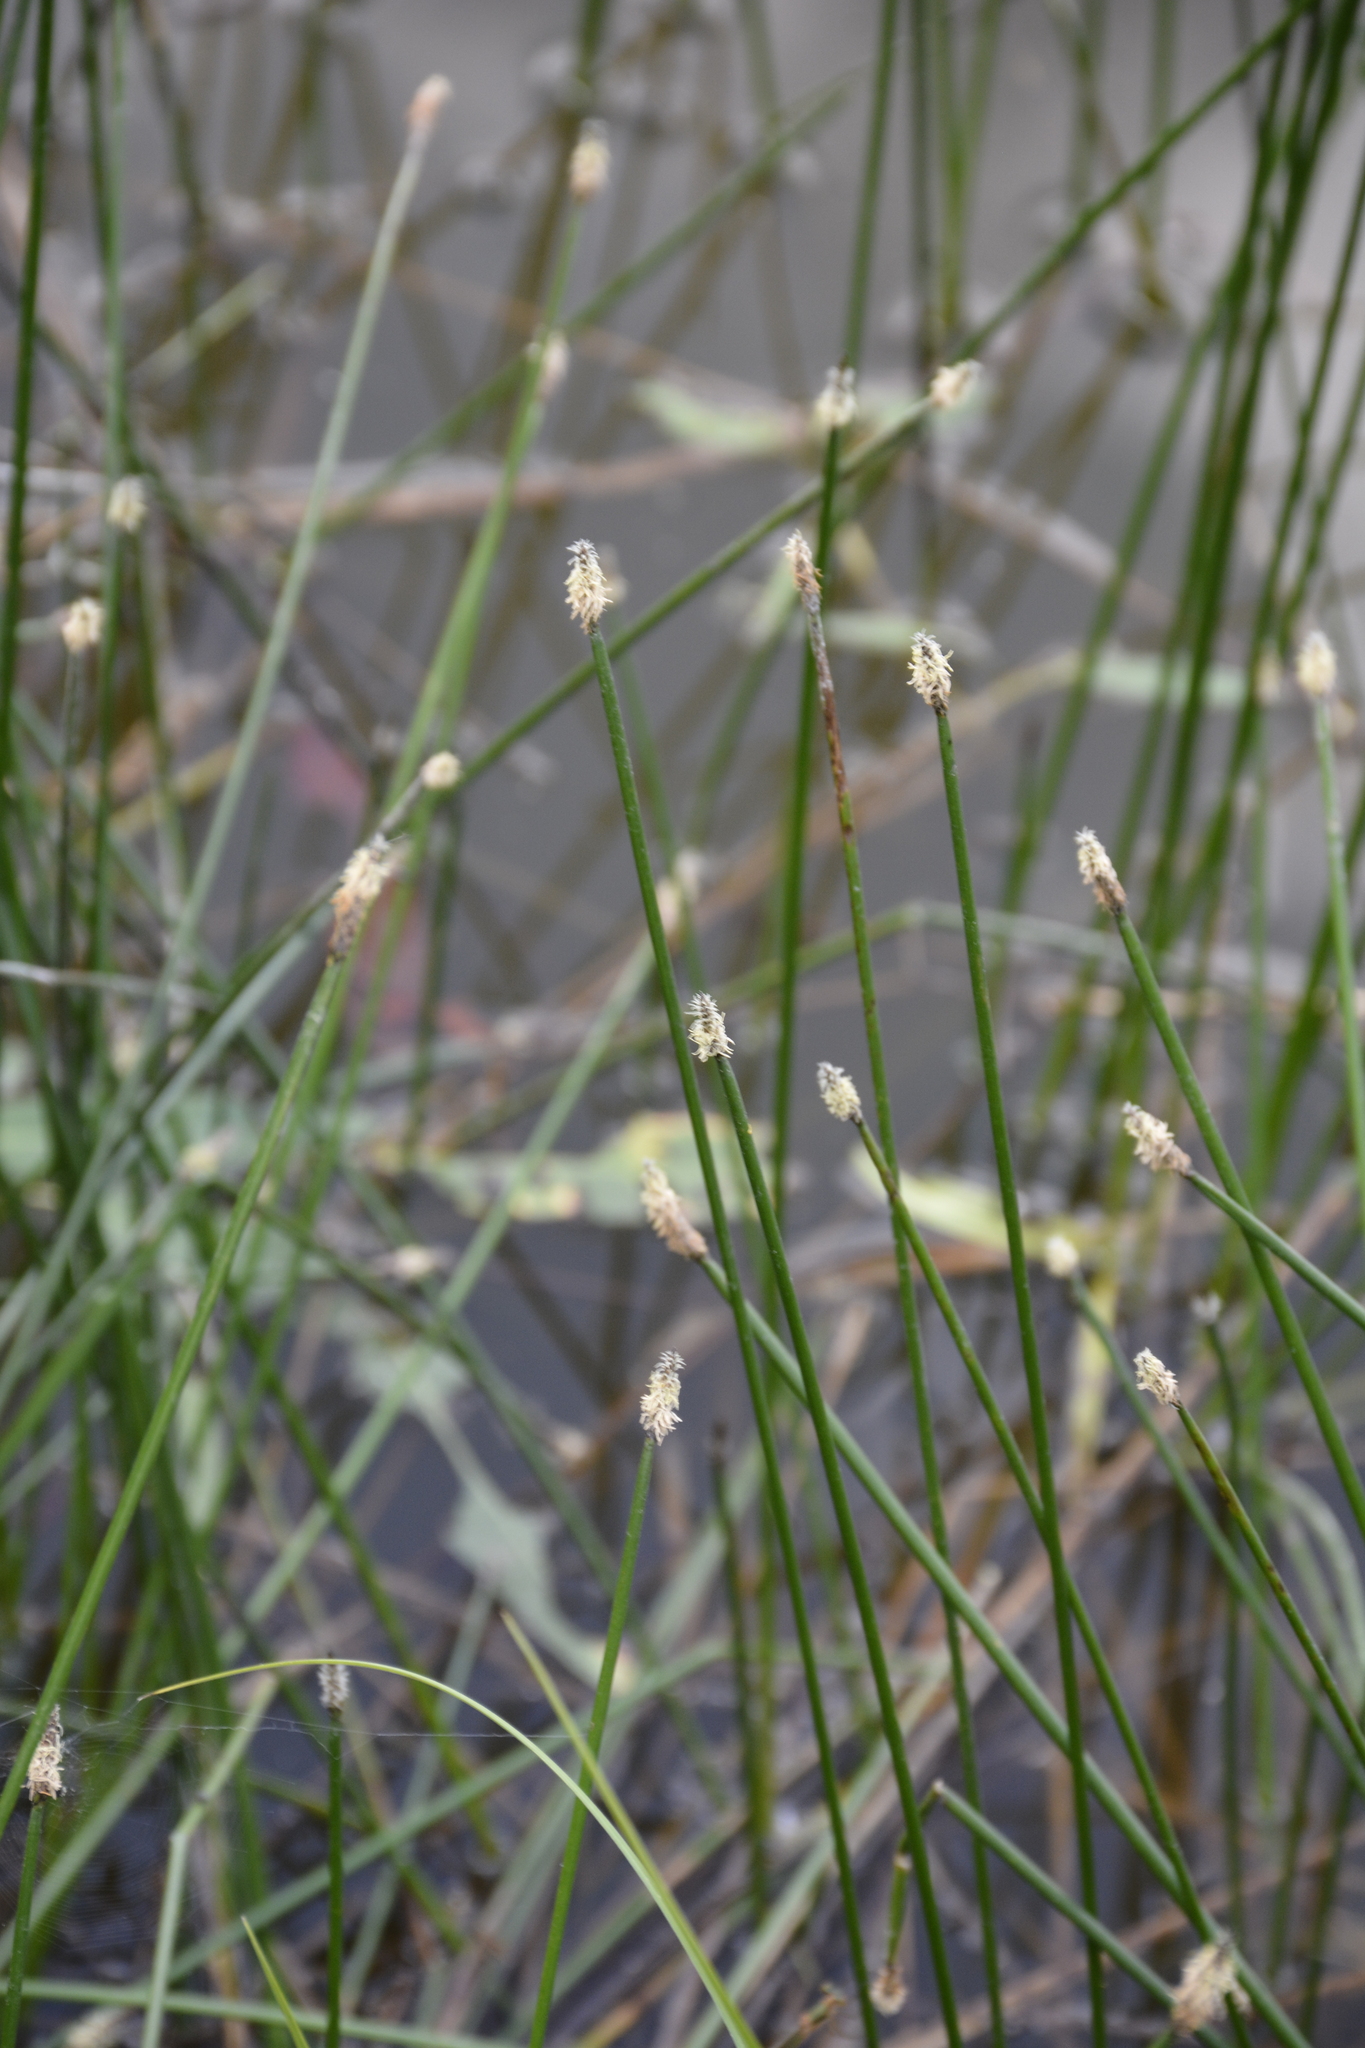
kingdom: Plantae
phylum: Tracheophyta
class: Liliopsida
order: Poales
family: Cyperaceae
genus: Eleocharis
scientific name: Eleocharis palustris
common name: Common spike-rush
